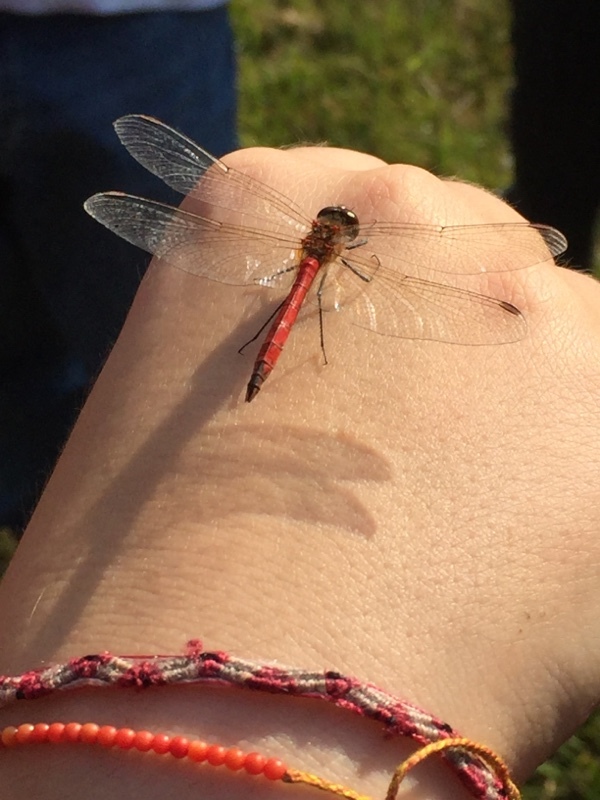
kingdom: Animalia
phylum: Arthropoda
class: Insecta
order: Odonata
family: Libellulidae
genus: Sympetrum
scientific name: Sympetrum depressiusculum
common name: Spotted darter
